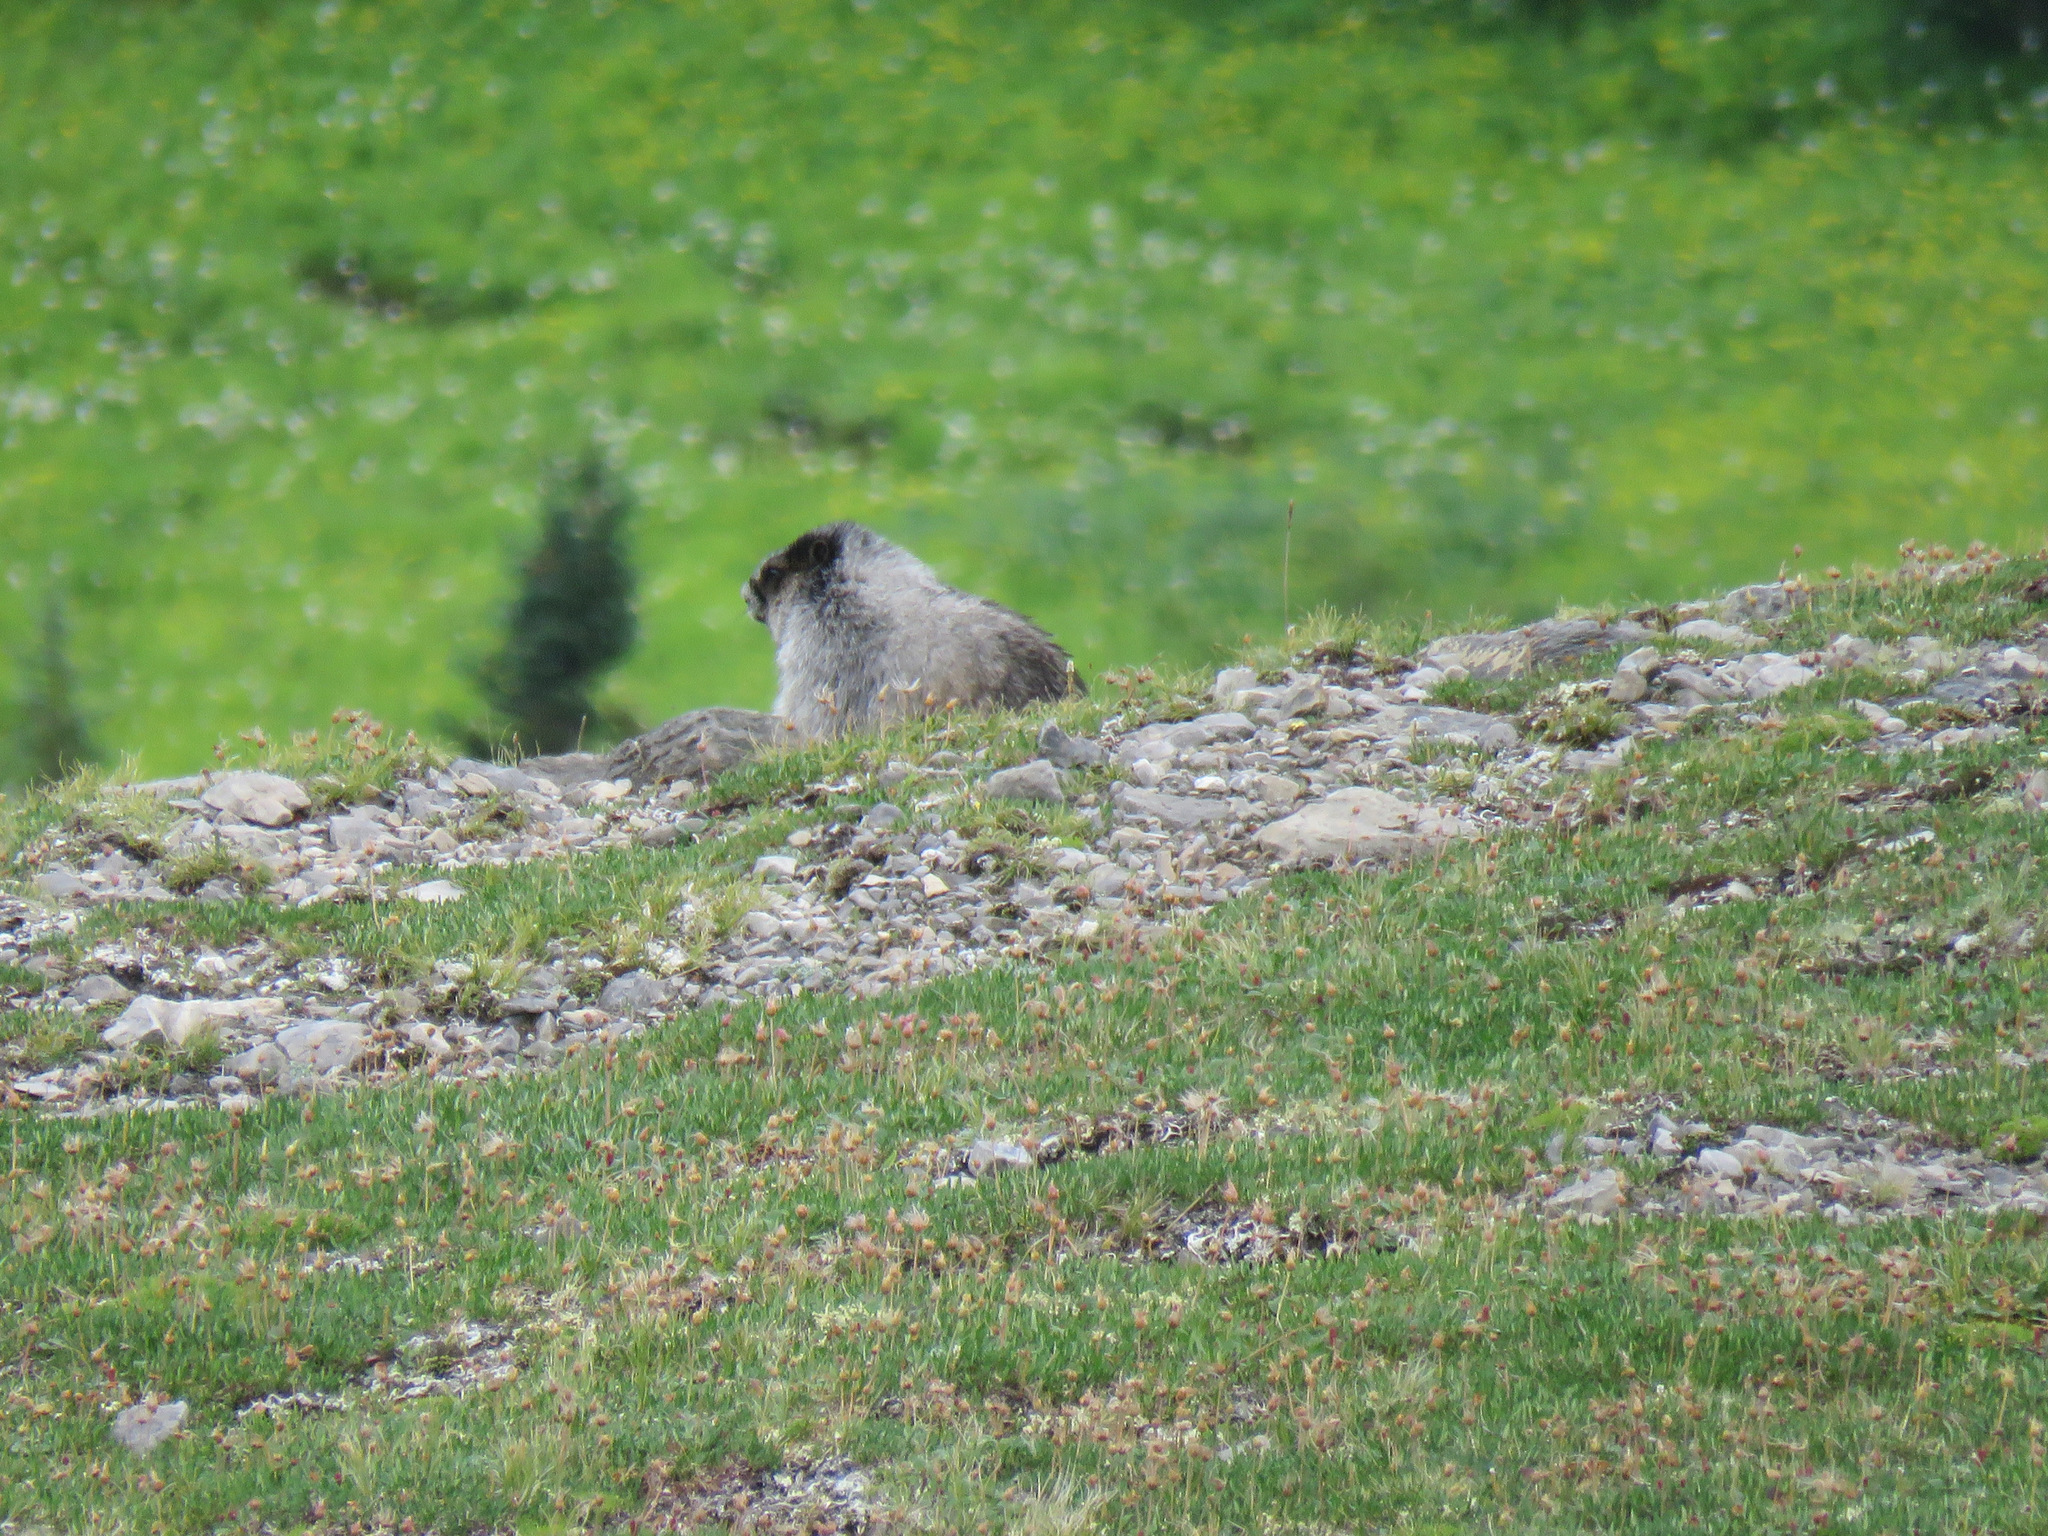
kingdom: Animalia
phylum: Chordata
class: Mammalia
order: Rodentia
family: Sciuridae
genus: Marmota
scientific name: Marmota caligata
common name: Hoary marmot
